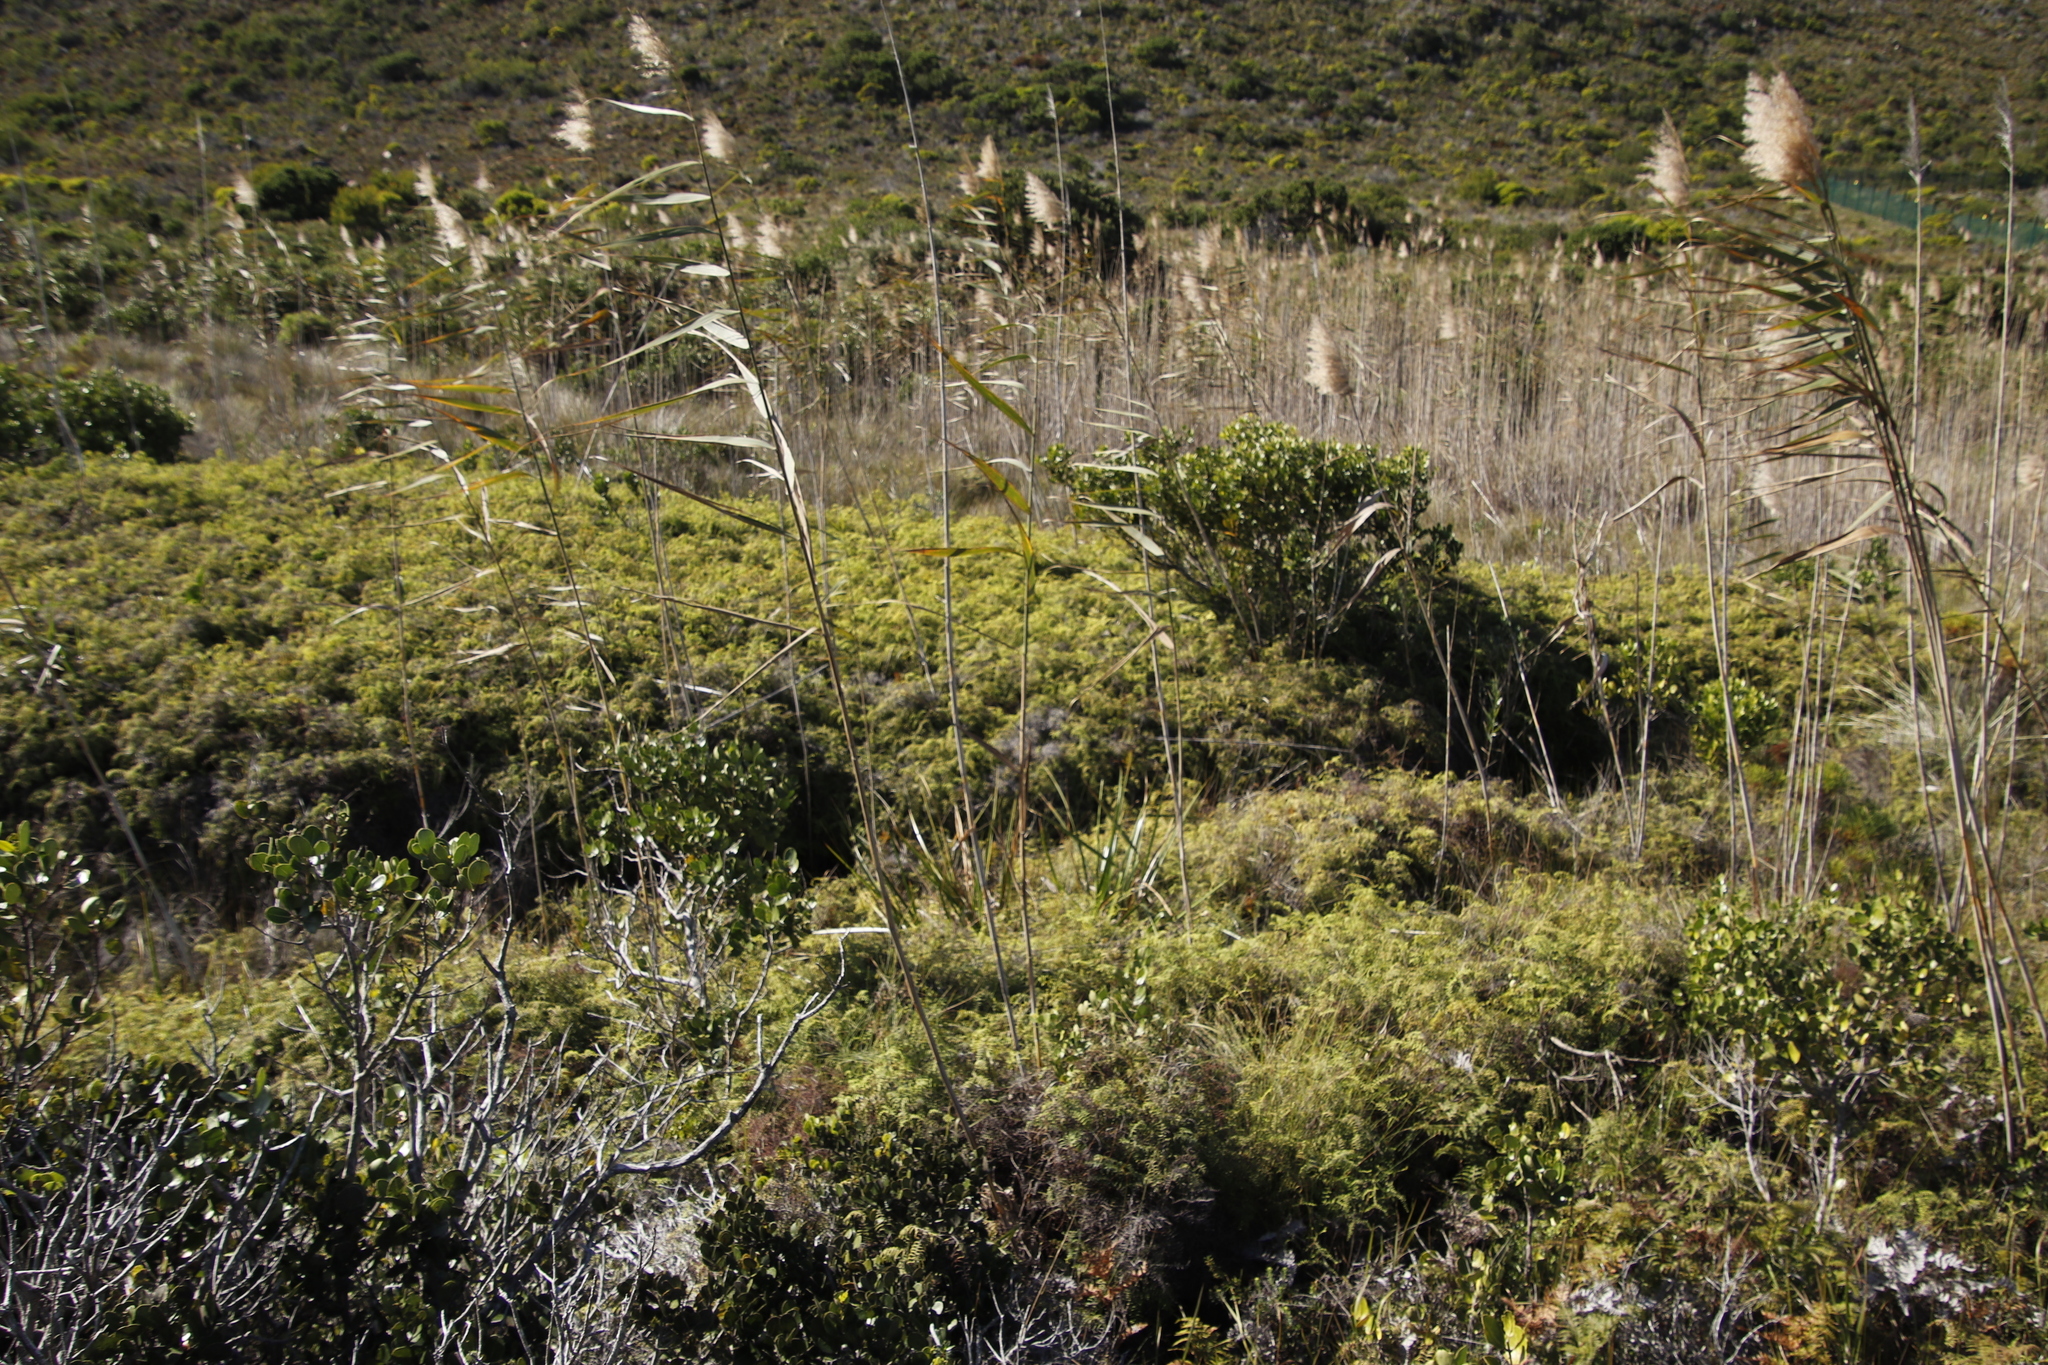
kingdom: Plantae
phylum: Tracheophyta
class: Liliopsida
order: Poales
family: Poaceae
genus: Phragmites
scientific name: Phragmites australis
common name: Common reed
